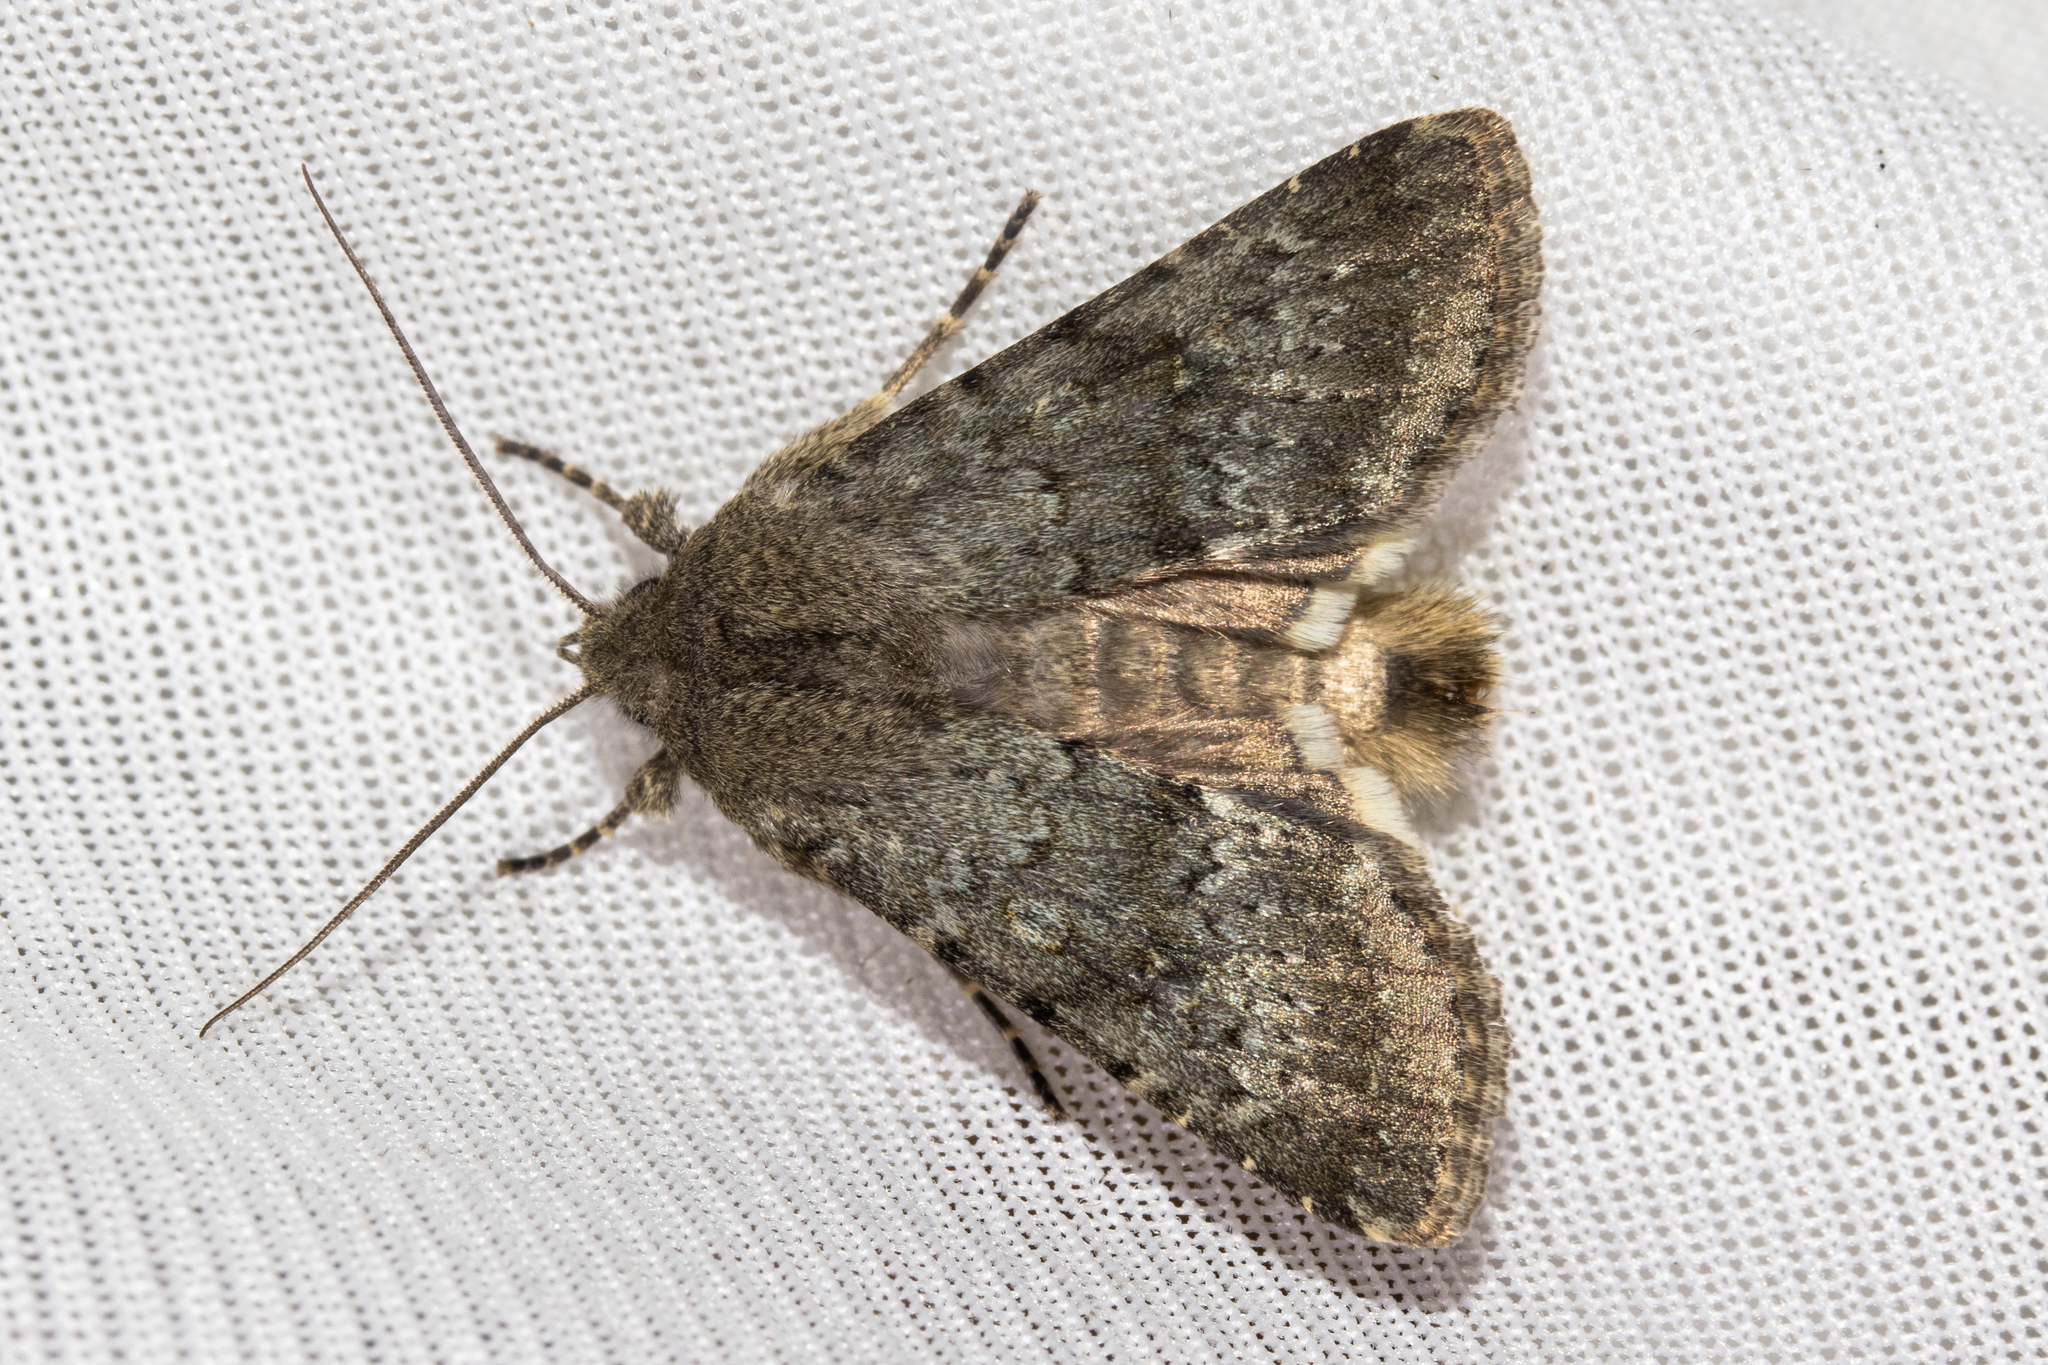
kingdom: Animalia
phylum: Arthropoda
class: Insecta
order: Lepidoptera
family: Noctuidae
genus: Ichneutica
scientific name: Ichneutica moderata
